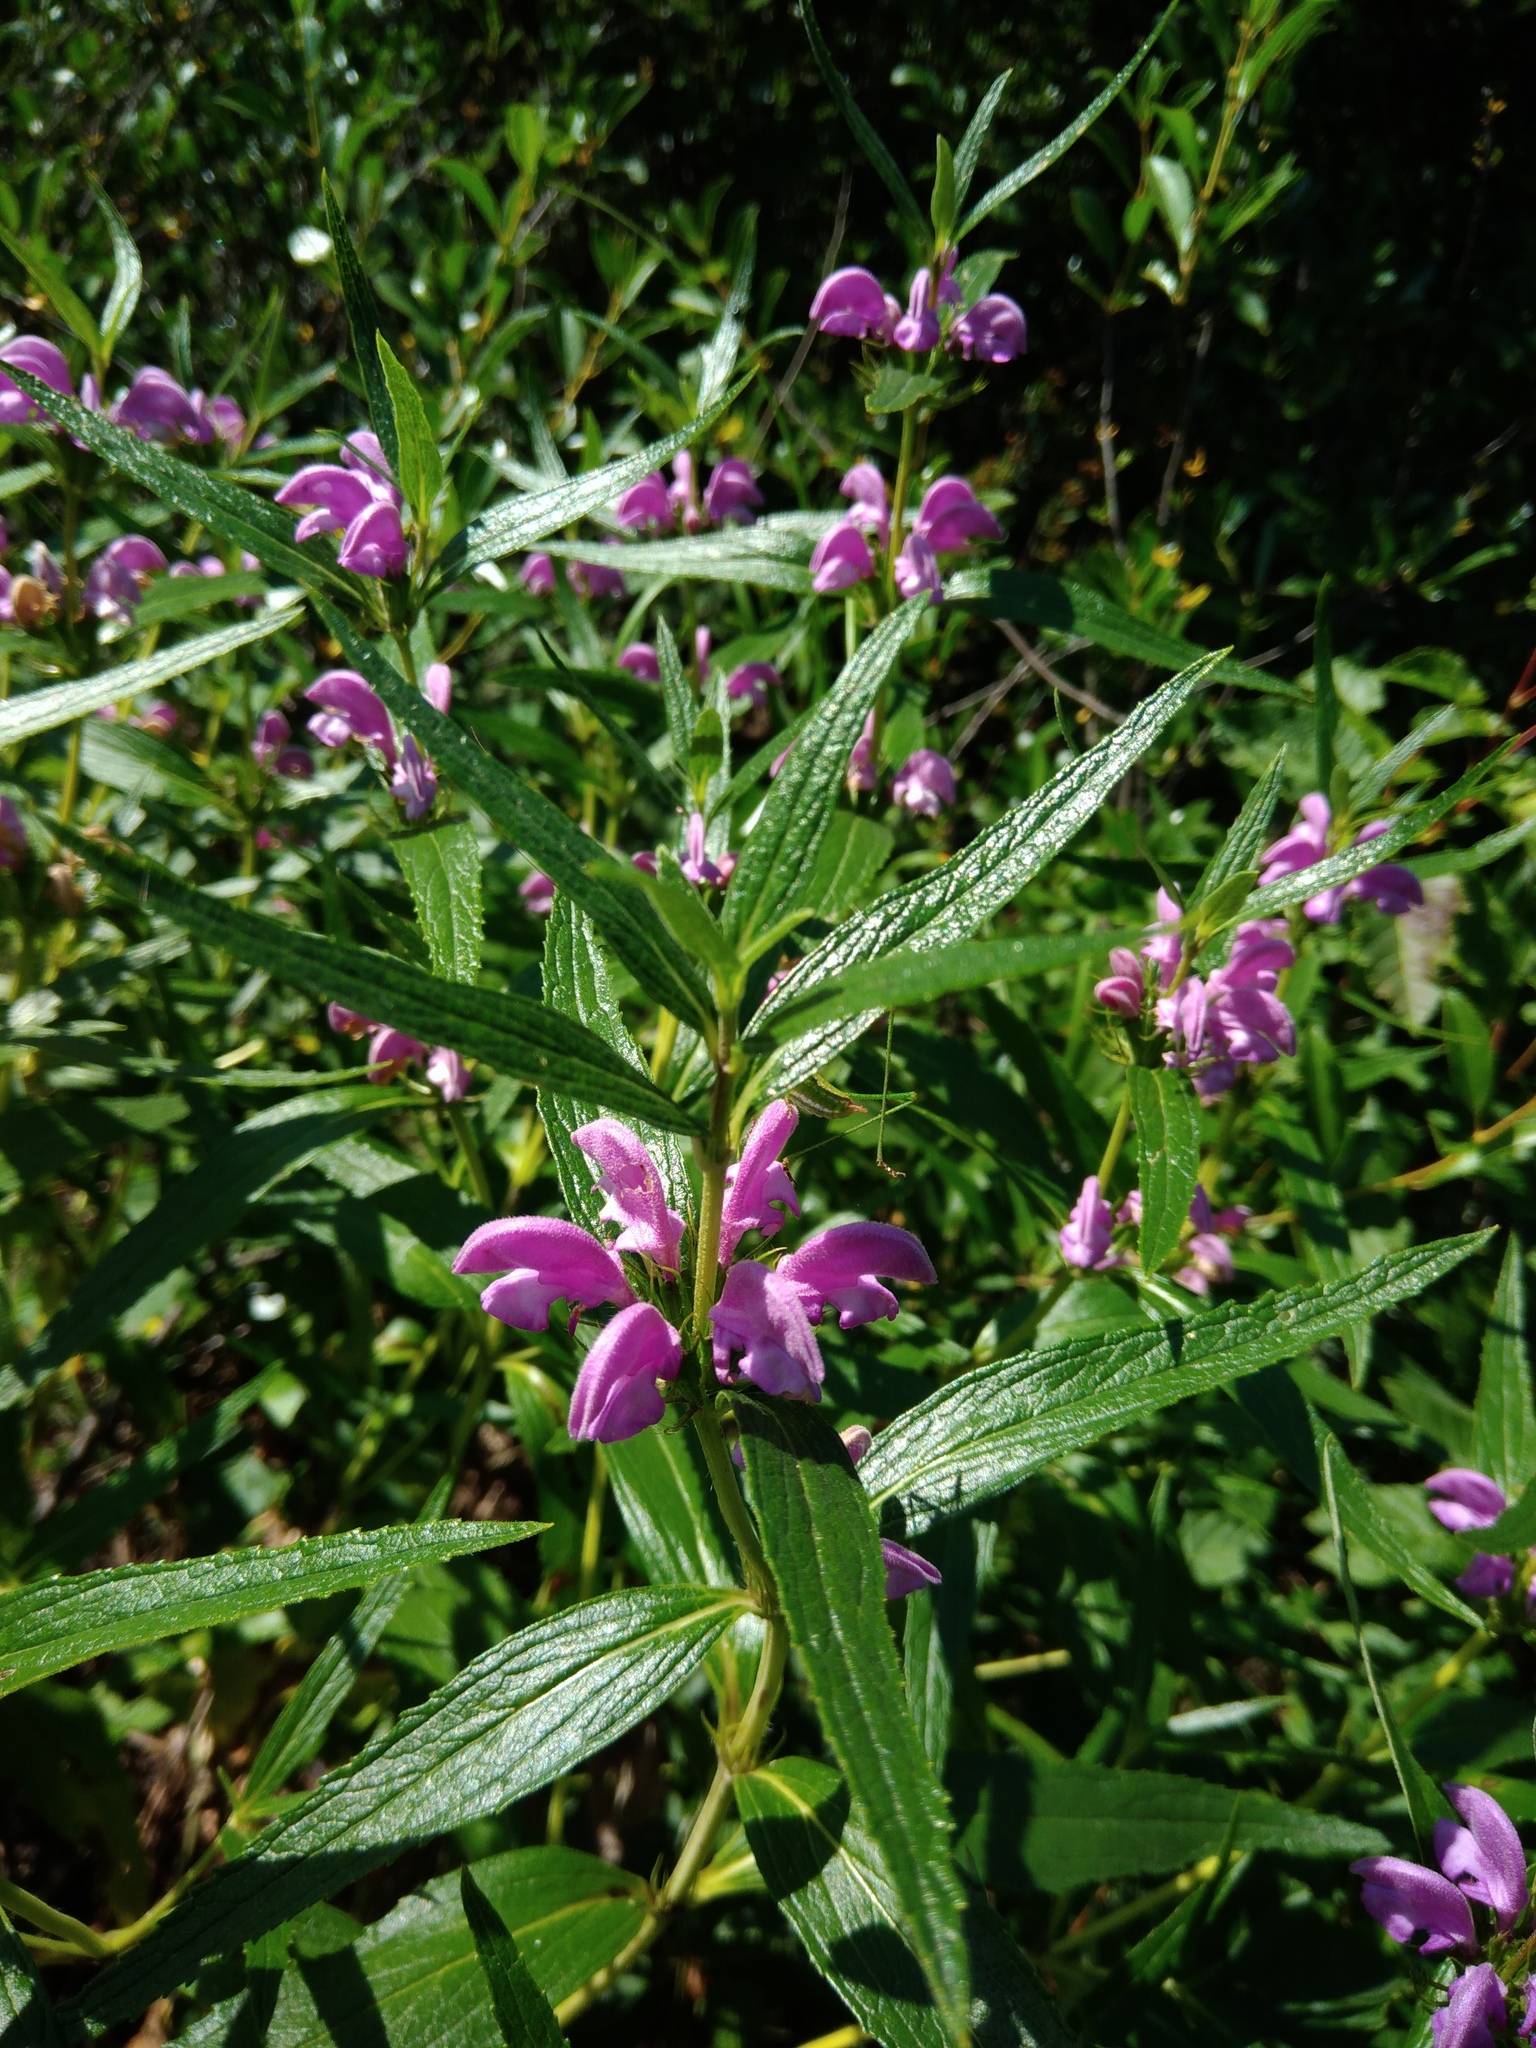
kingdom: Plantae
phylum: Tracheophyta
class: Magnoliopsida
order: Lamiales
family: Lamiaceae
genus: Phlomis
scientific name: Phlomis herba-venti
